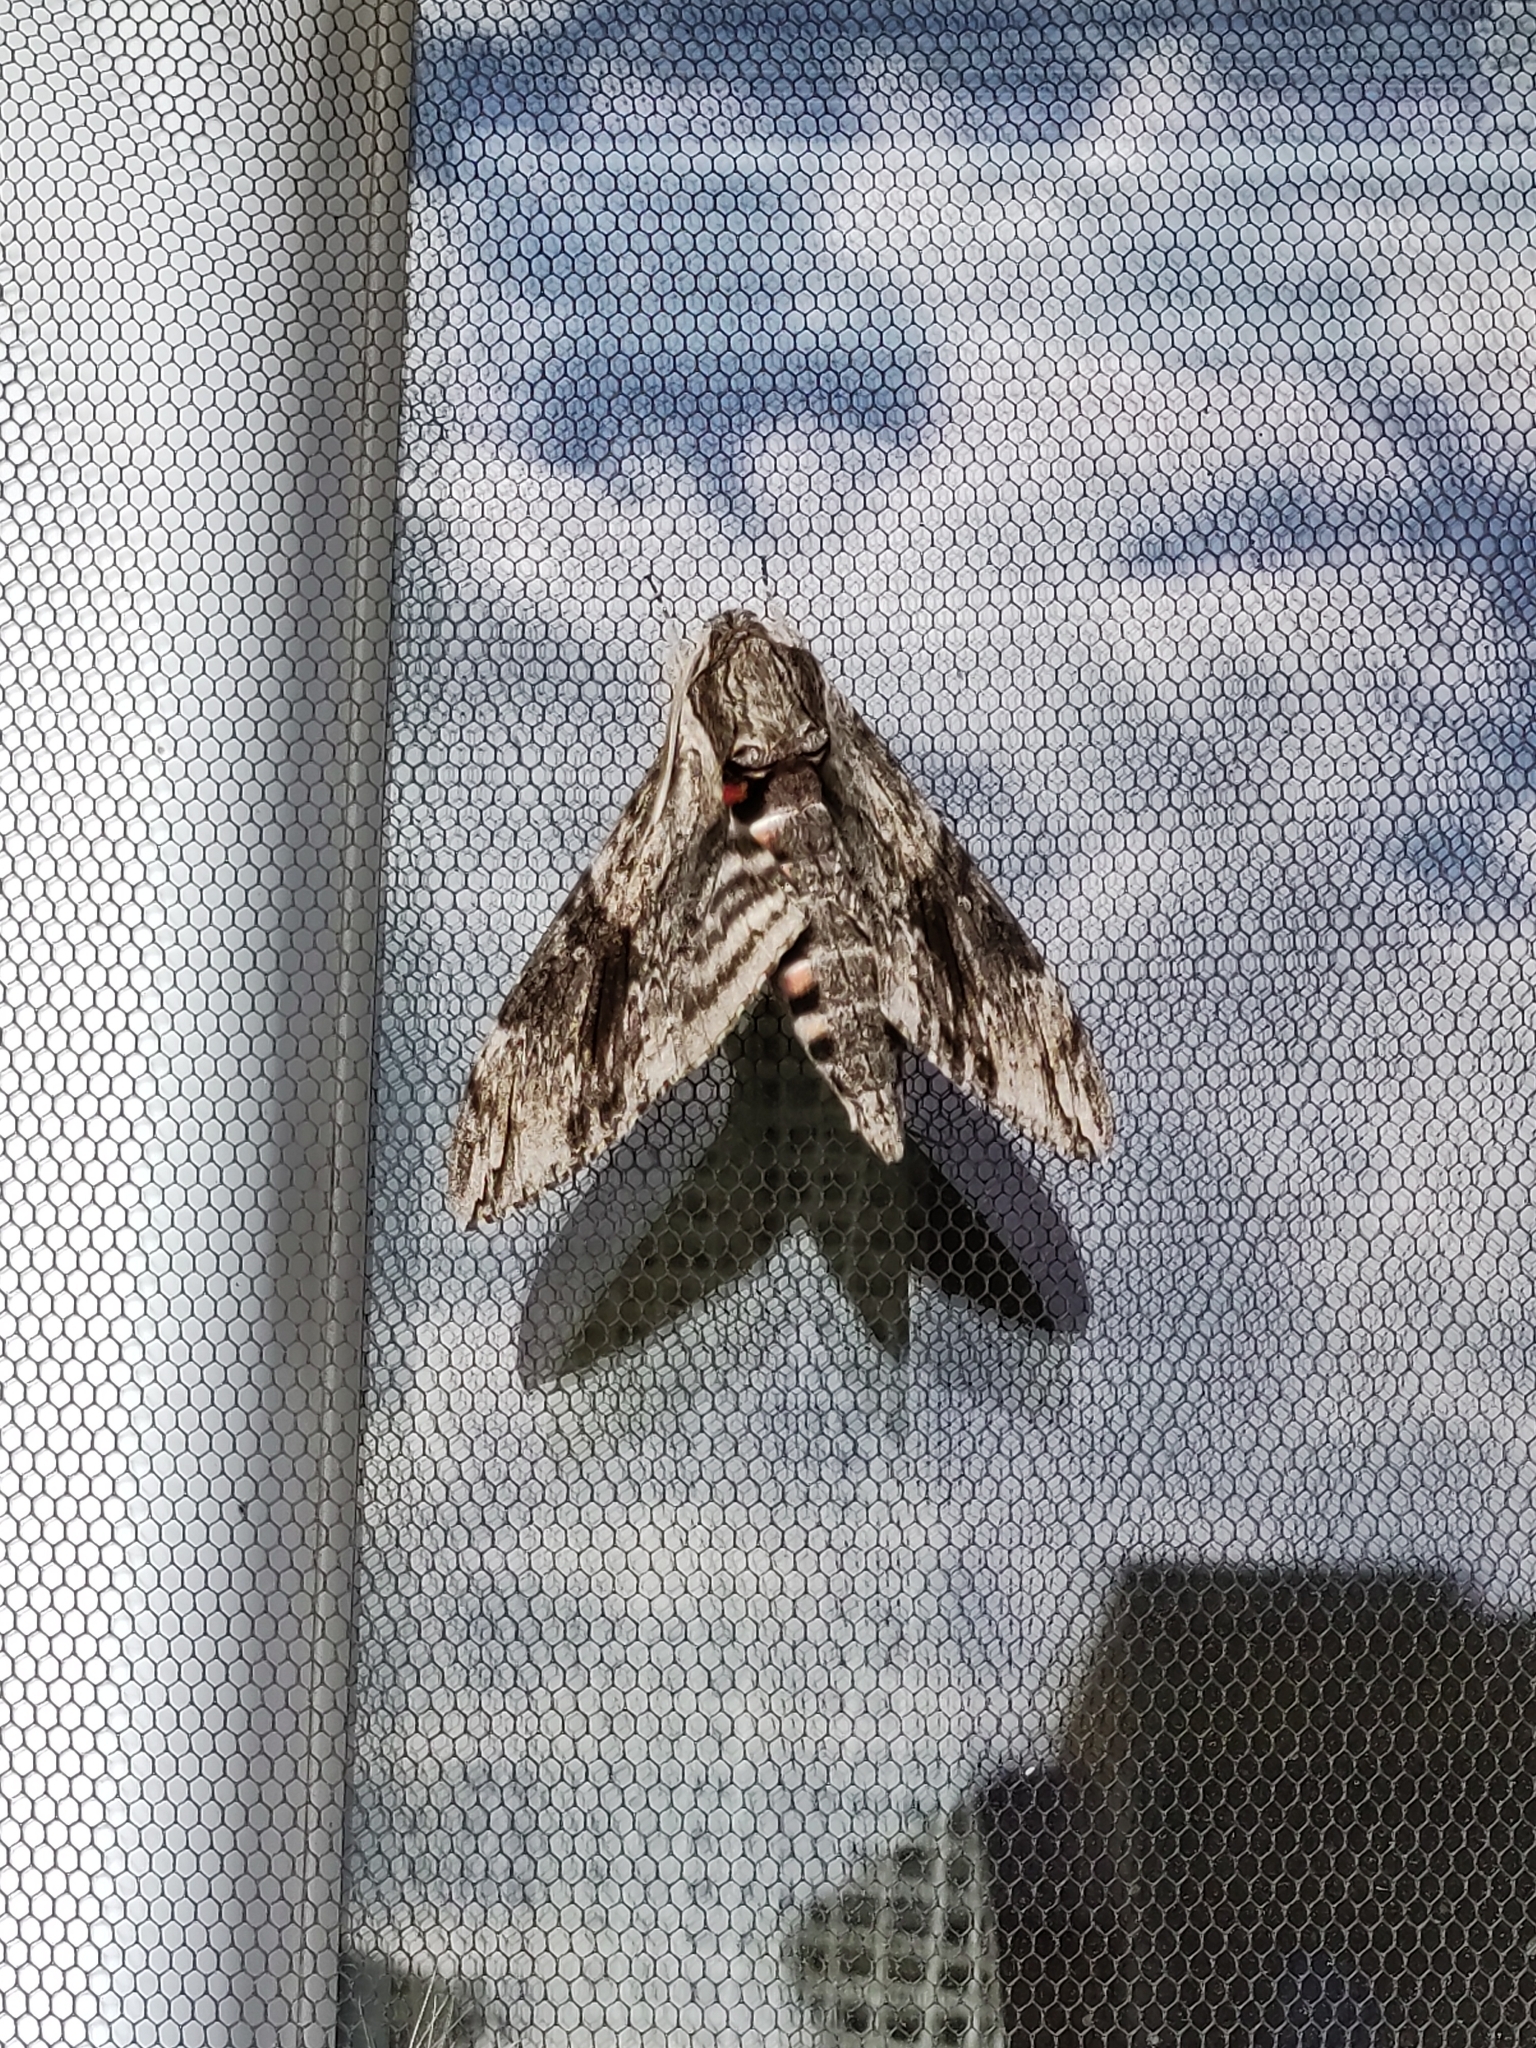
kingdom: Animalia
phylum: Arthropoda
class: Insecta
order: Lepidoptera
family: Sphingidae
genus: Agrius
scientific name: Agrius convolvuli
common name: Convolvulus hawkmoth
